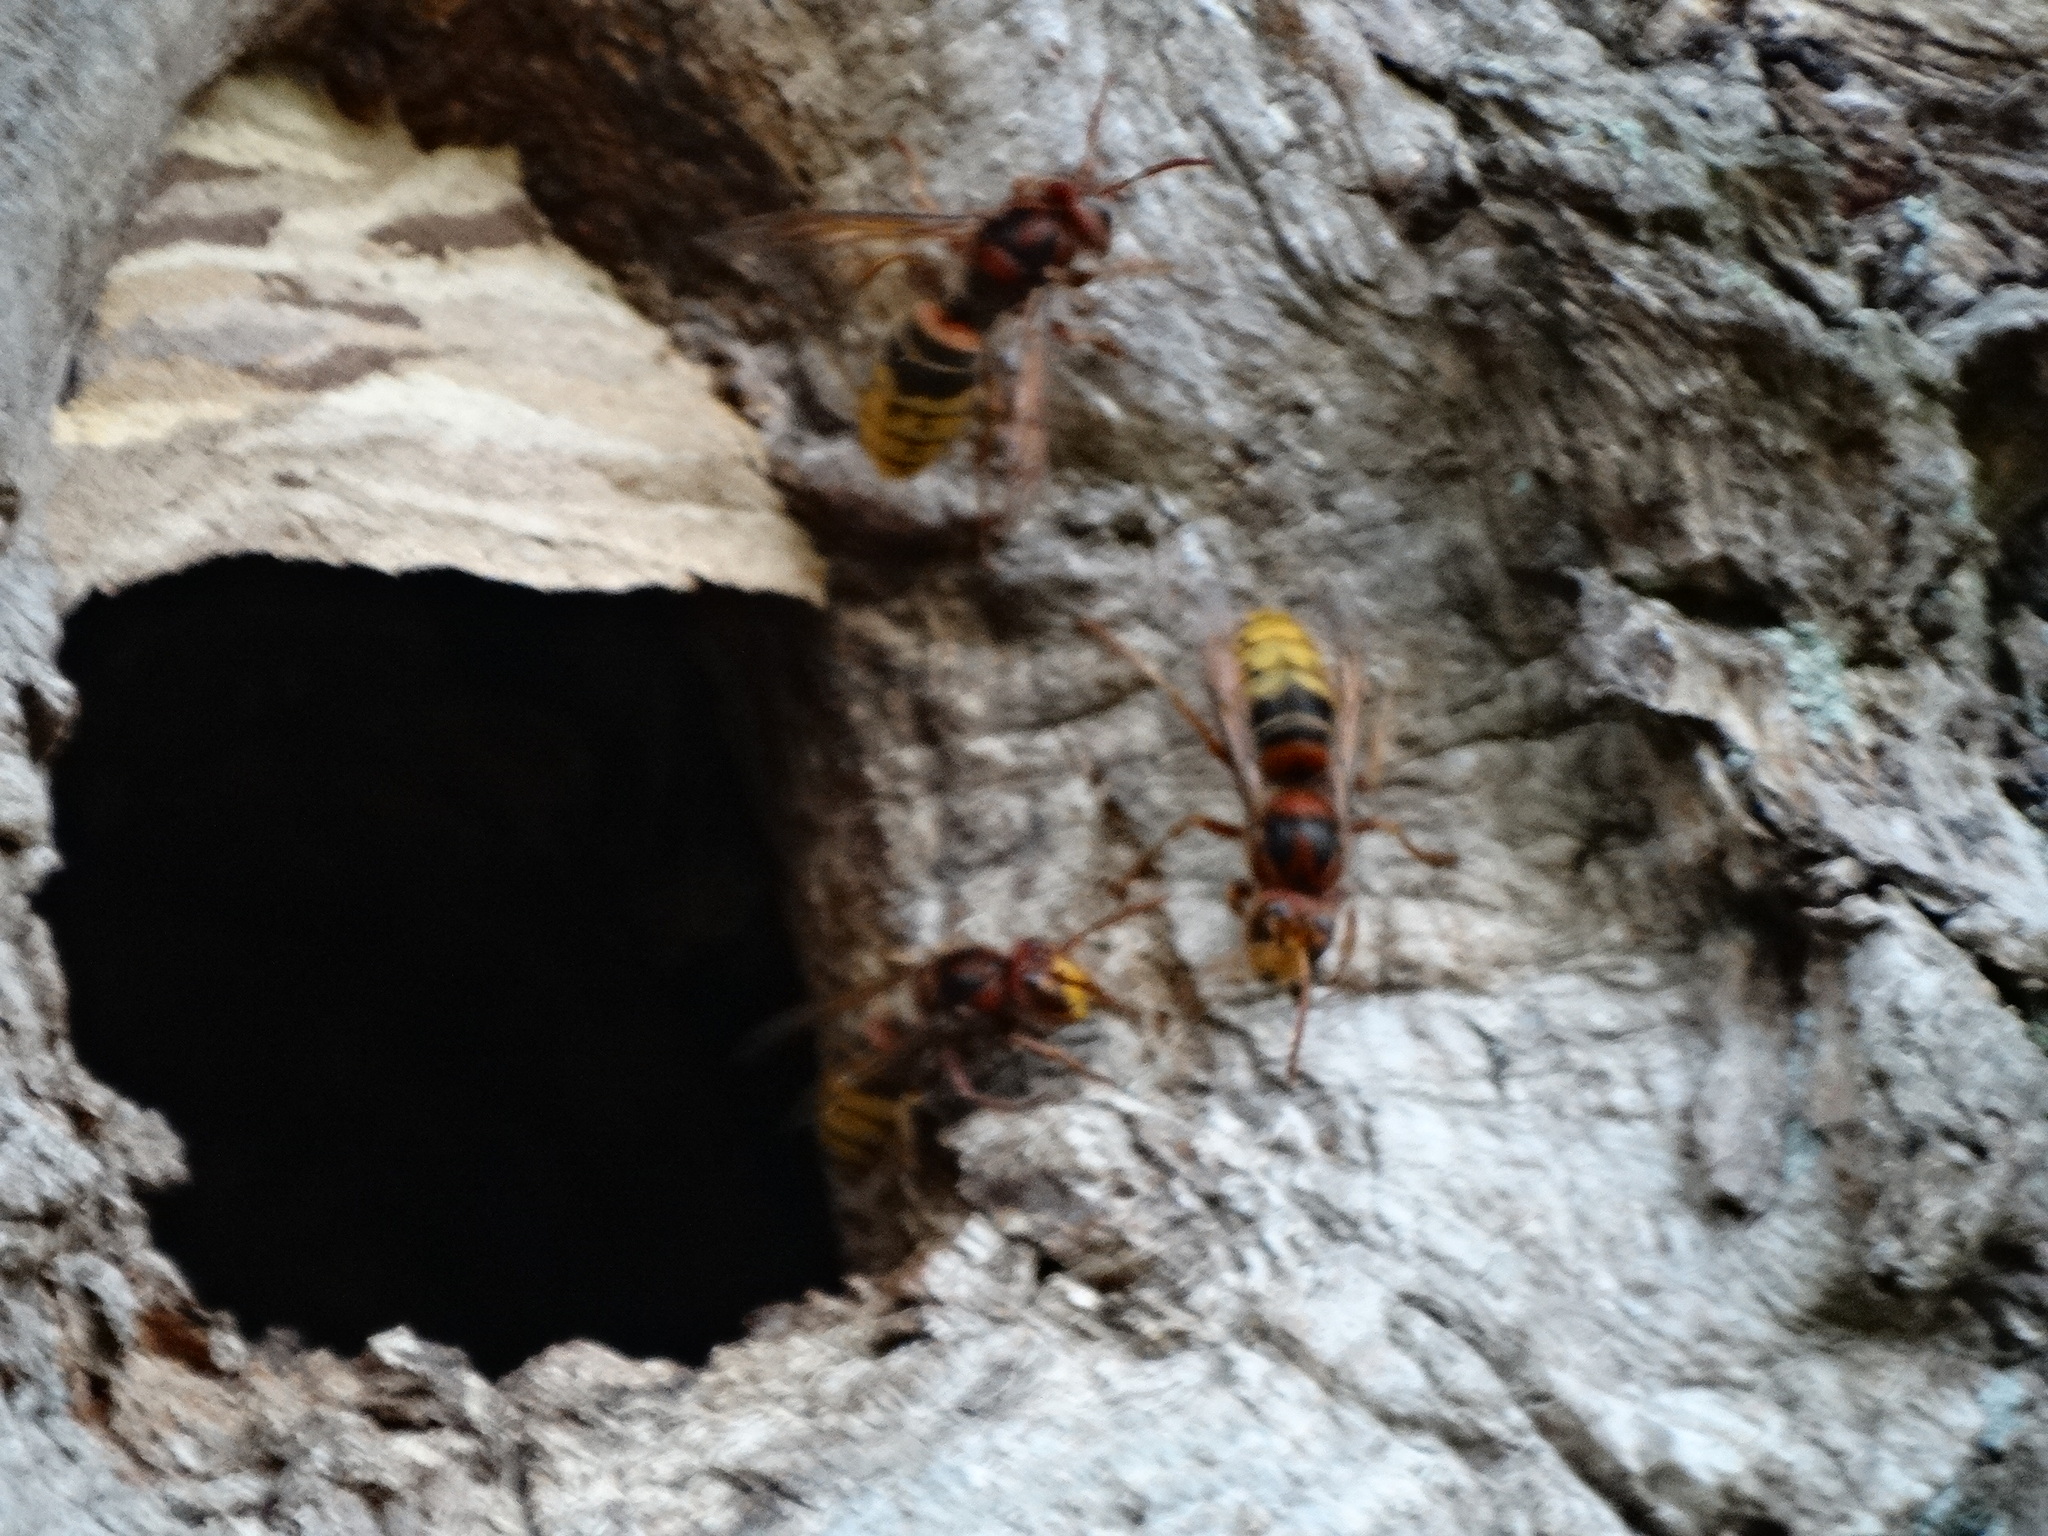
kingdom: Animalia
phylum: Arthropoda
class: Insecta
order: Hymenoptera
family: Vespidae
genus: Vespa
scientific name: Vespa crabro
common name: Hornet
